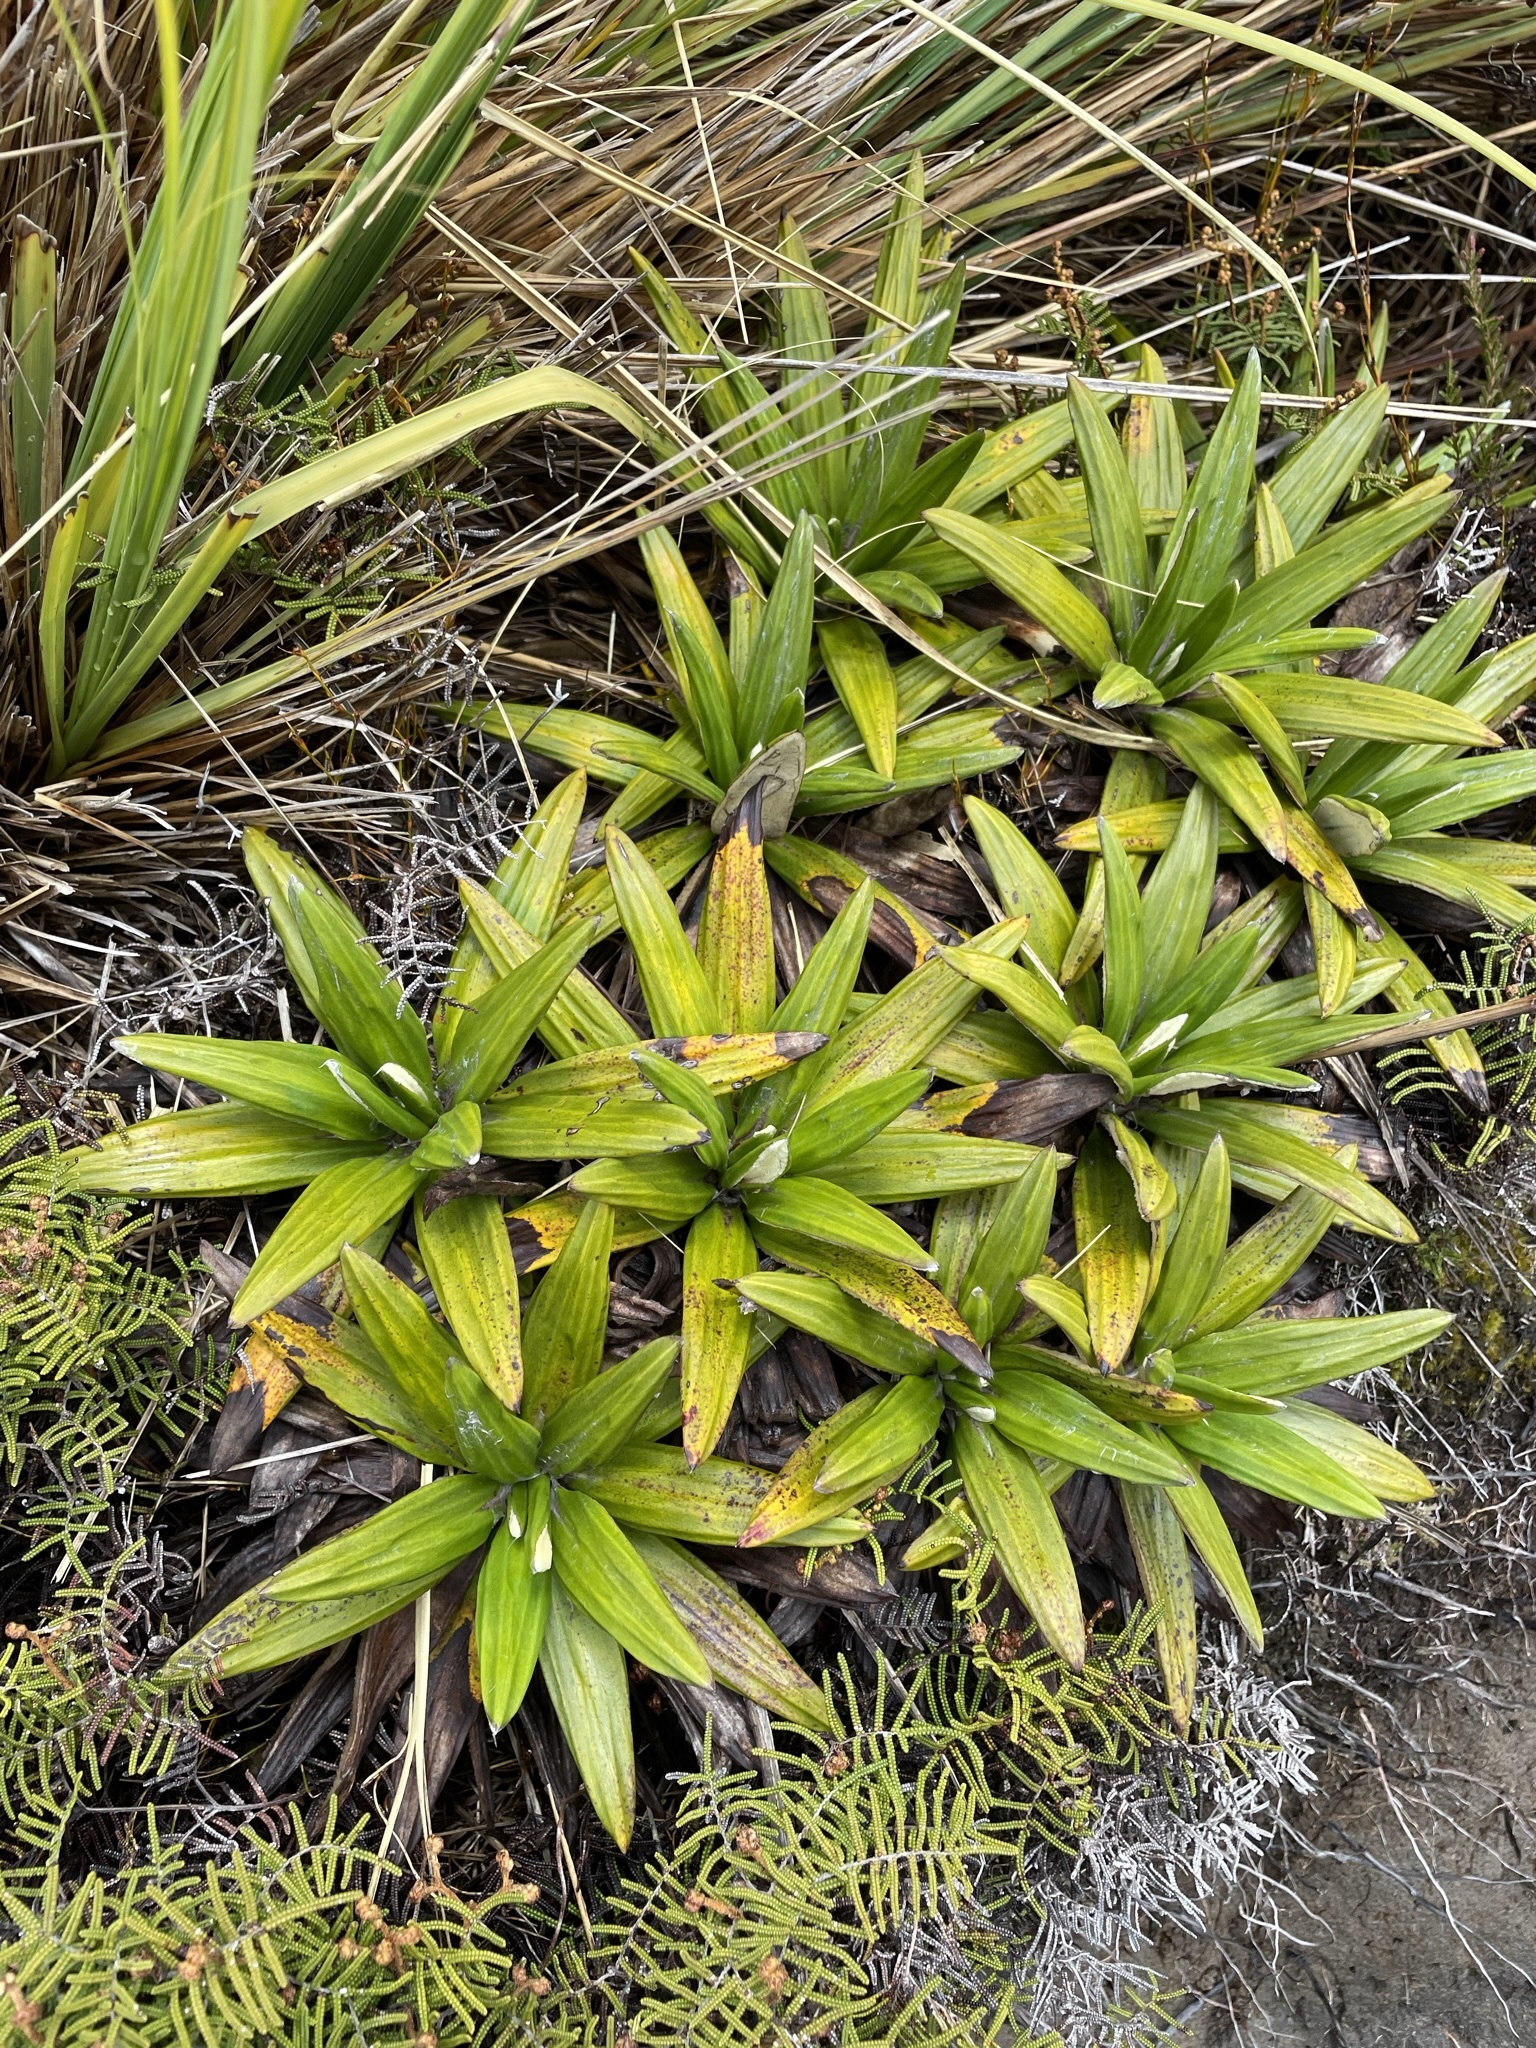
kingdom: Plantae
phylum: Tracheophyta
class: Magnoliopsida
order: Asterales
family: Asteraceae
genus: Celmisia
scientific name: Celmisia spectabilis
